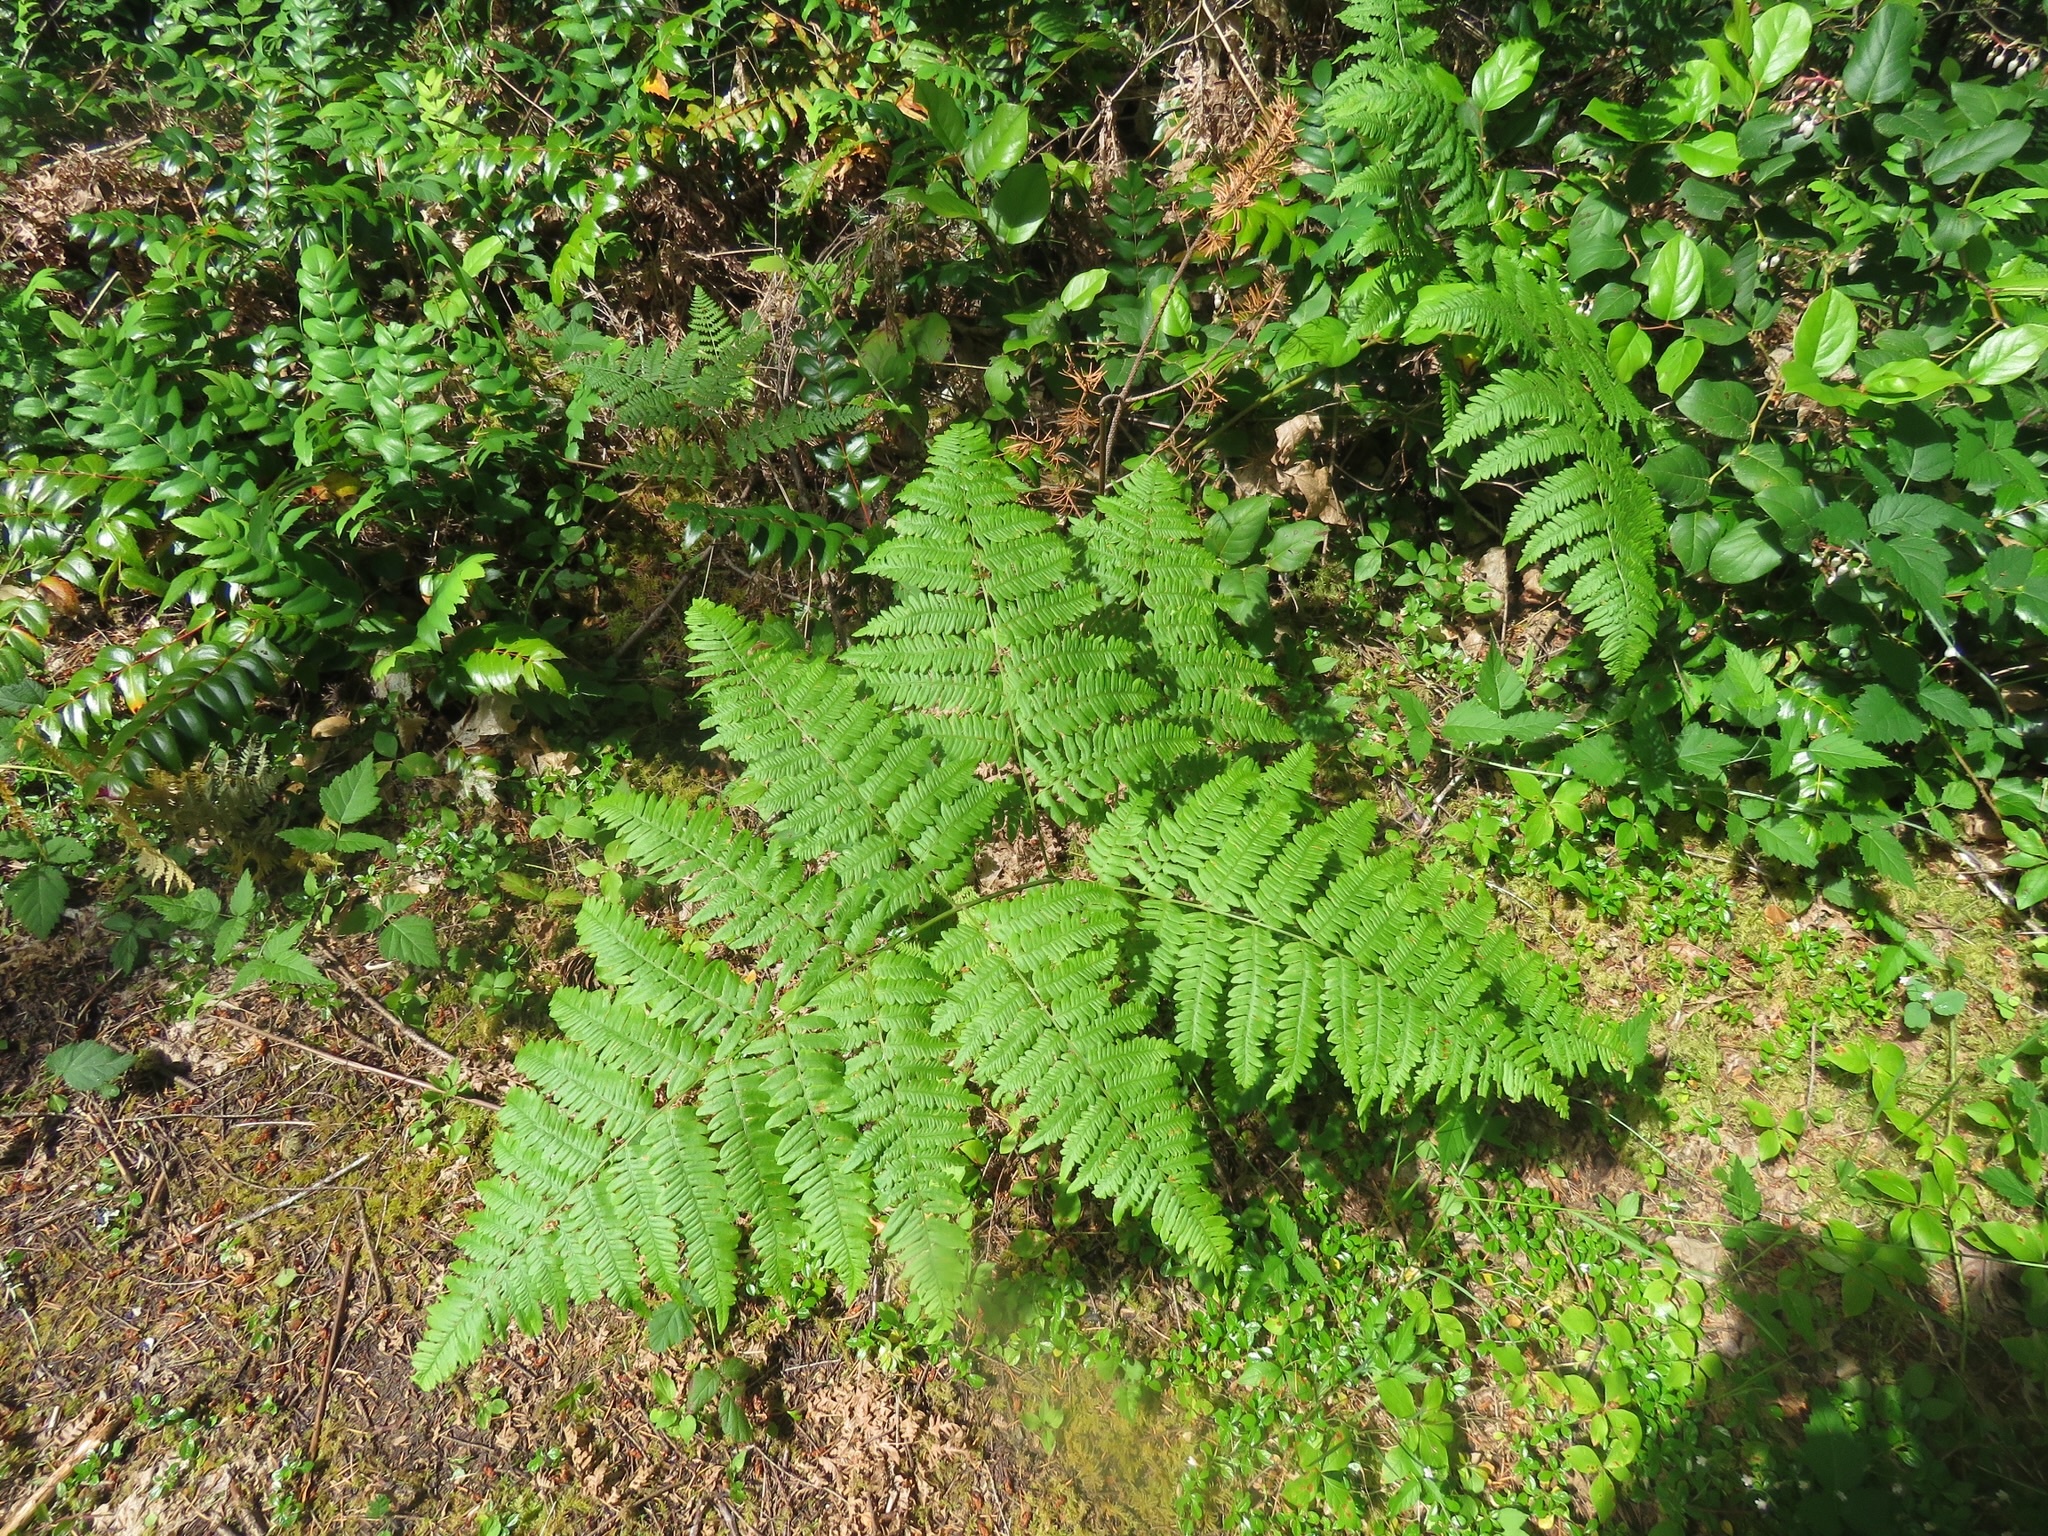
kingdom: Plantae
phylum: Tracheophyta
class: Polypodiopsida
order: Polypodiales
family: Dennstaedtiaceae
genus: Pteridium
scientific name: Pteridium aquilinum
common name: Bracken
